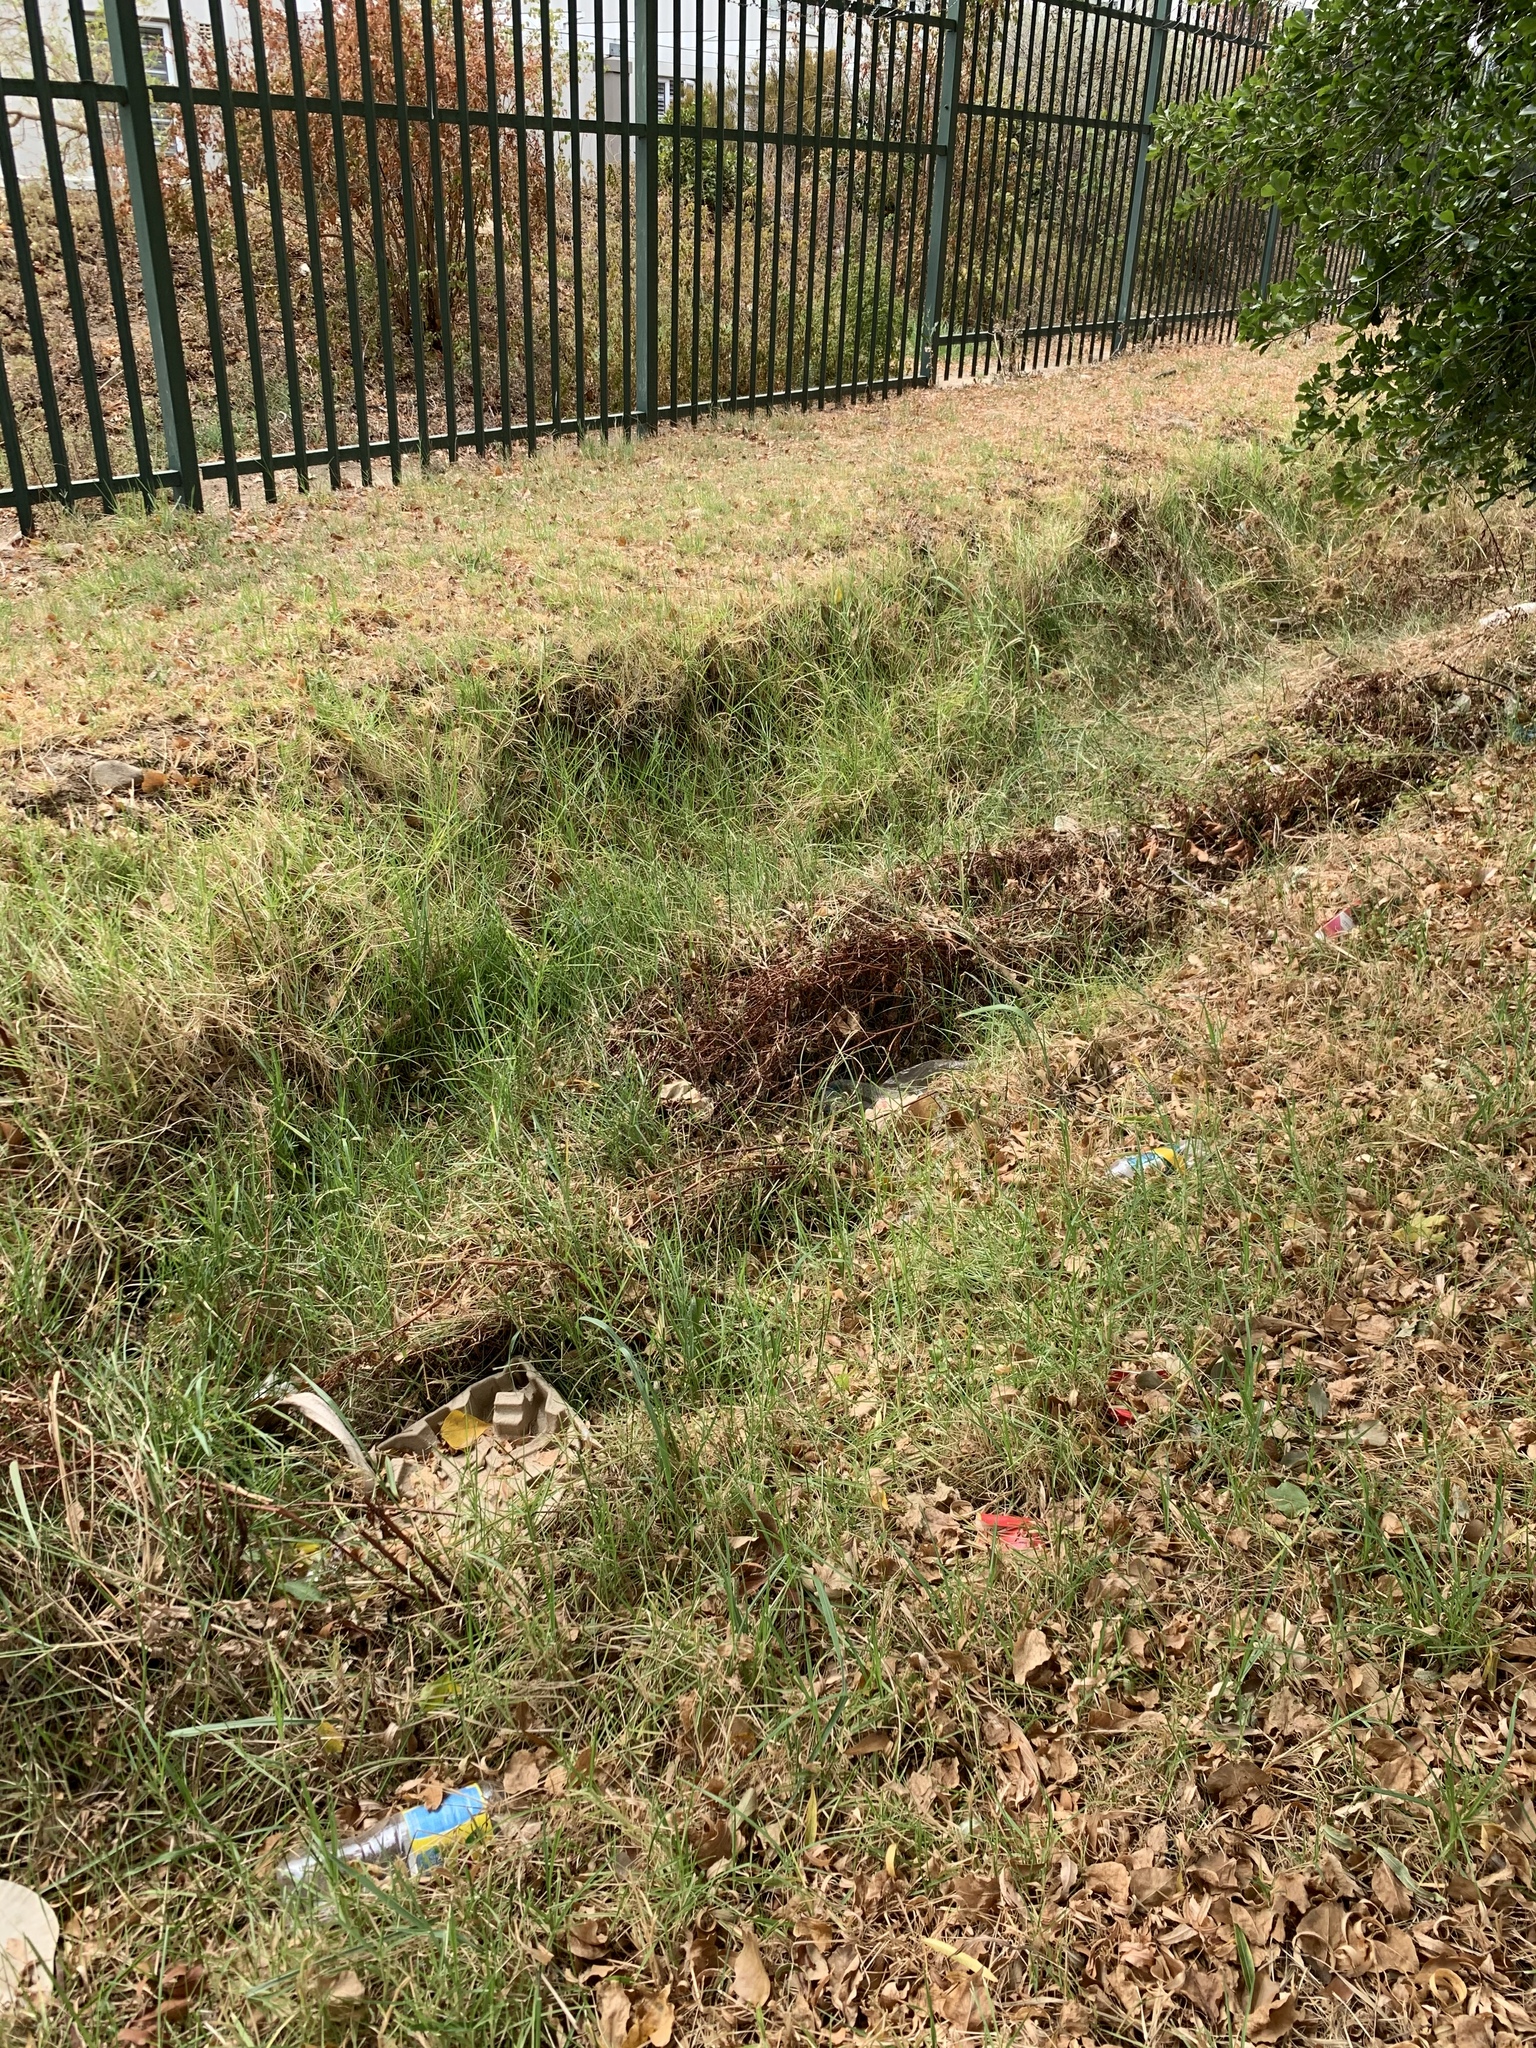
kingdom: Plantae
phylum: Tracheophyta
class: Liliopsida
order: Poales
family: Poaceae
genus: Cenchrus
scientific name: Cenchrus clandestinus
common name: Kikuyugrass
